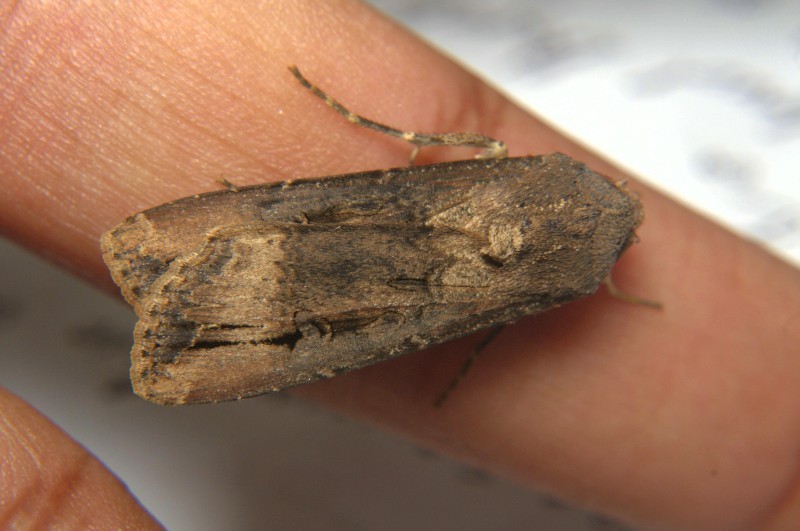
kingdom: Animalia
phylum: Arthropoda
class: Insecta
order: Lepidoptera
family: Noctuidae
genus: Agrotis
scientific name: Agrotis ipsilon
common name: Dark sword-grass
